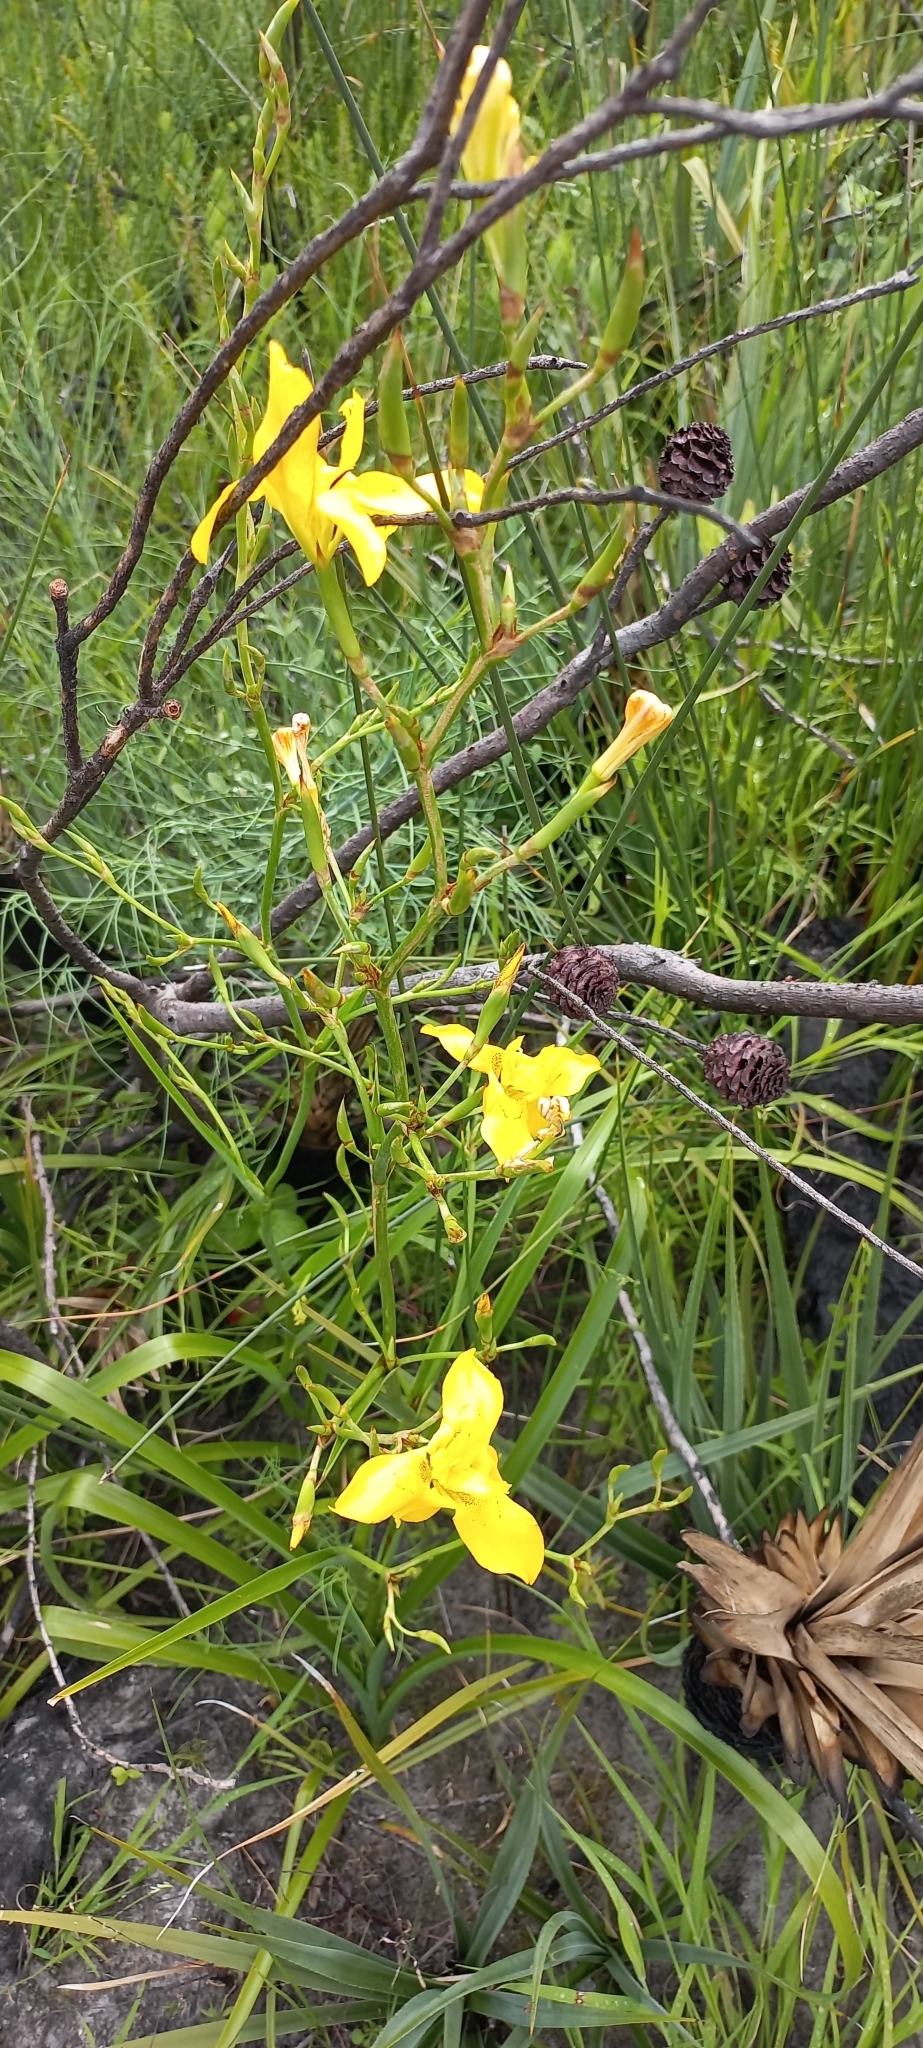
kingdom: Plantae
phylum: Tracheophyta
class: Liliopsida
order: Asparagales
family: Iridaceae
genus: Moraea
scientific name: Moraea ramosissima
